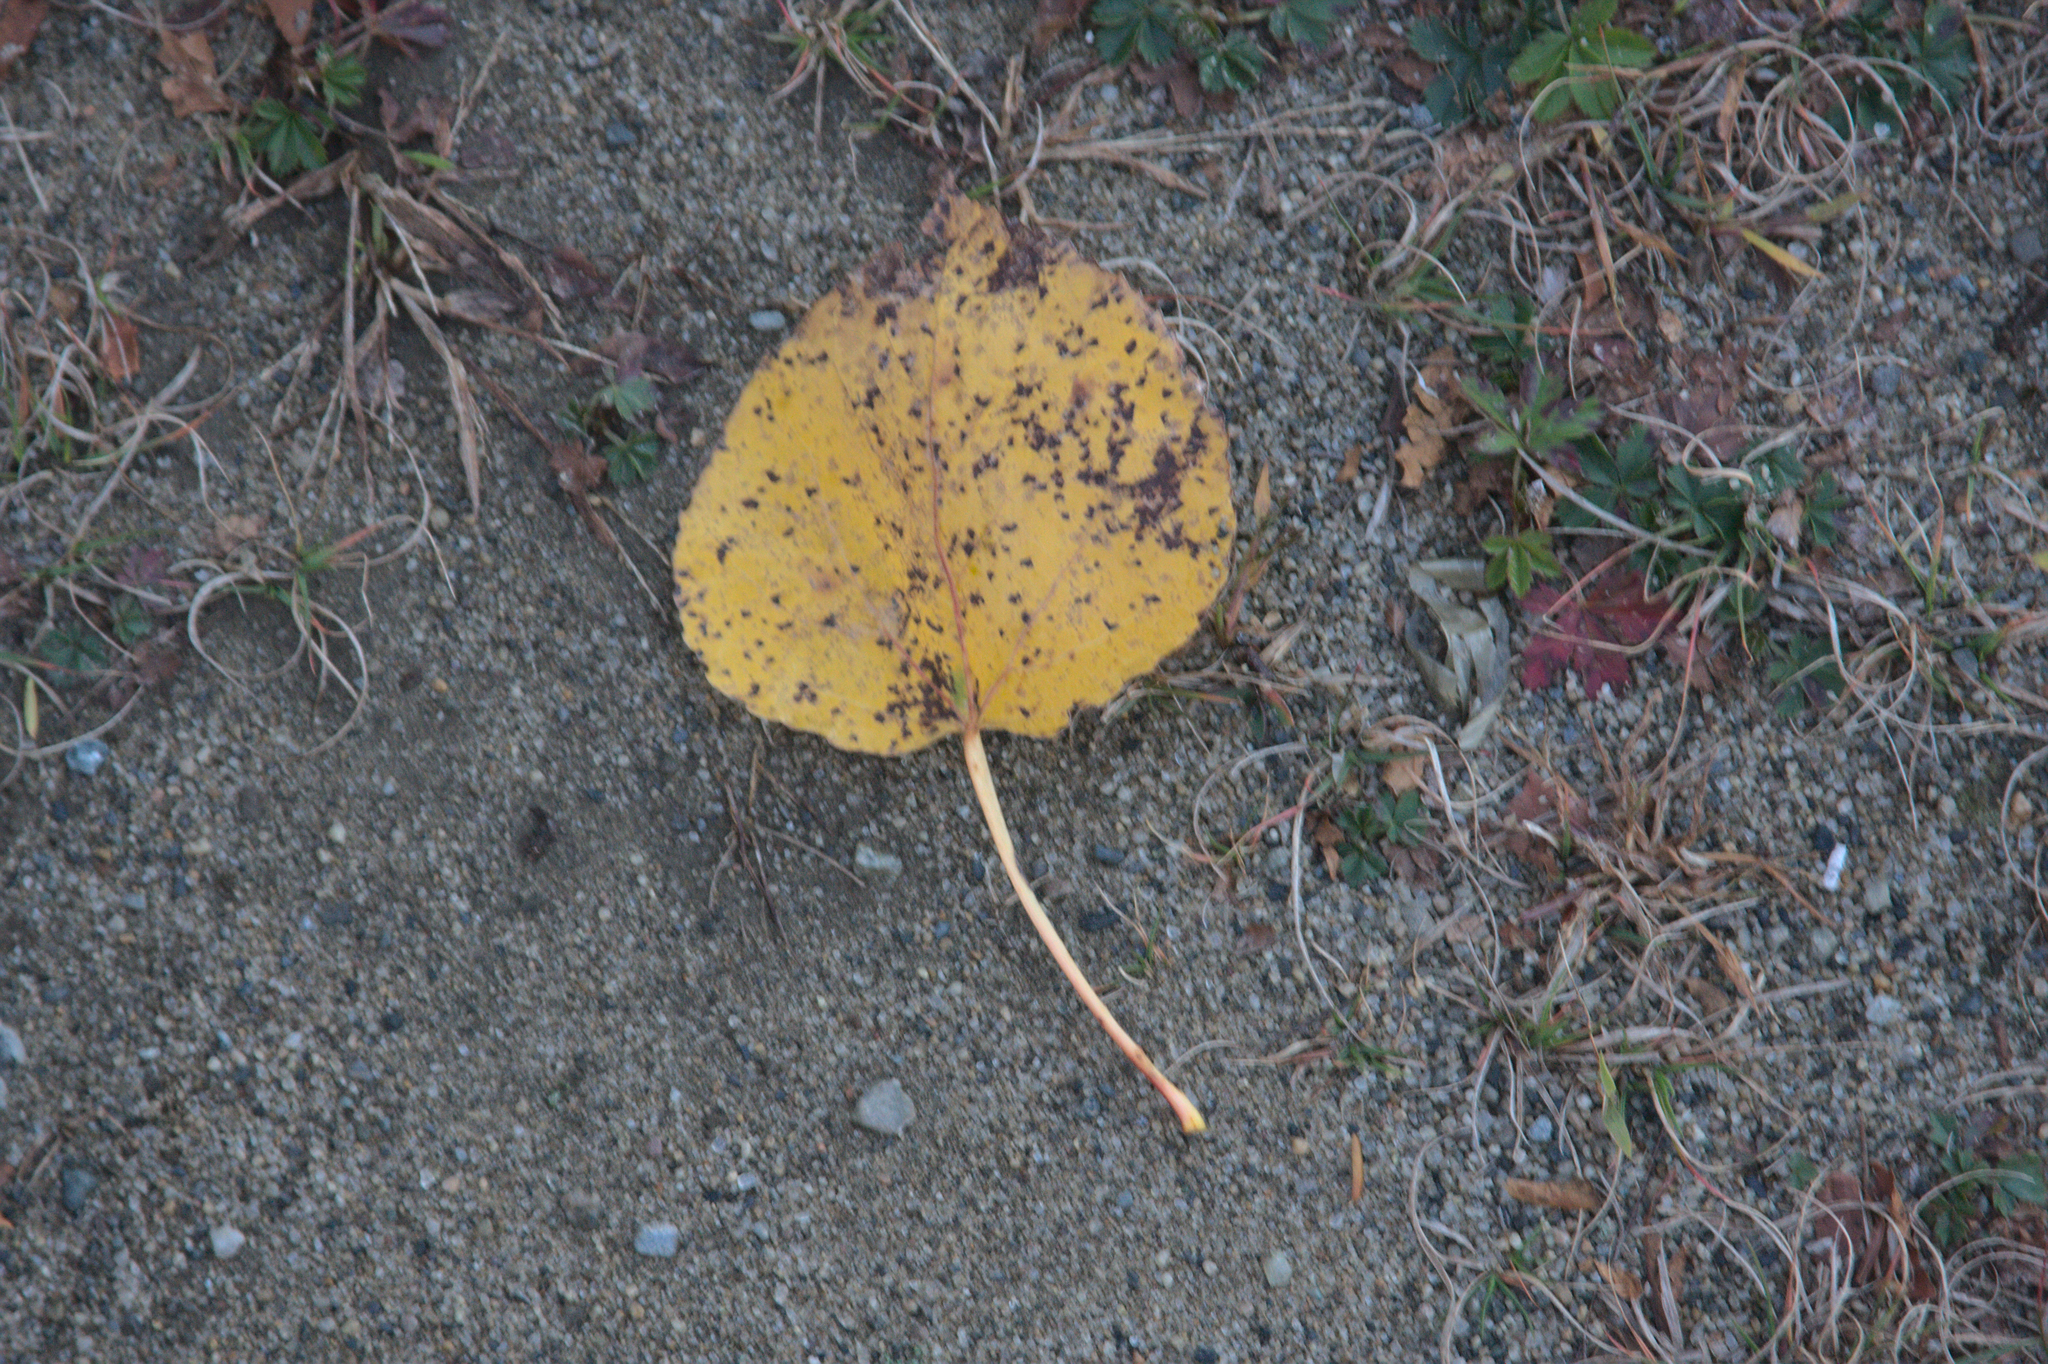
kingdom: Plantae
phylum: Tracheophyta
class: Magnoliopsida
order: Malpighiales
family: Salicaceae
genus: Populus
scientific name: Populus tremuloides
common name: Quaking aspen
